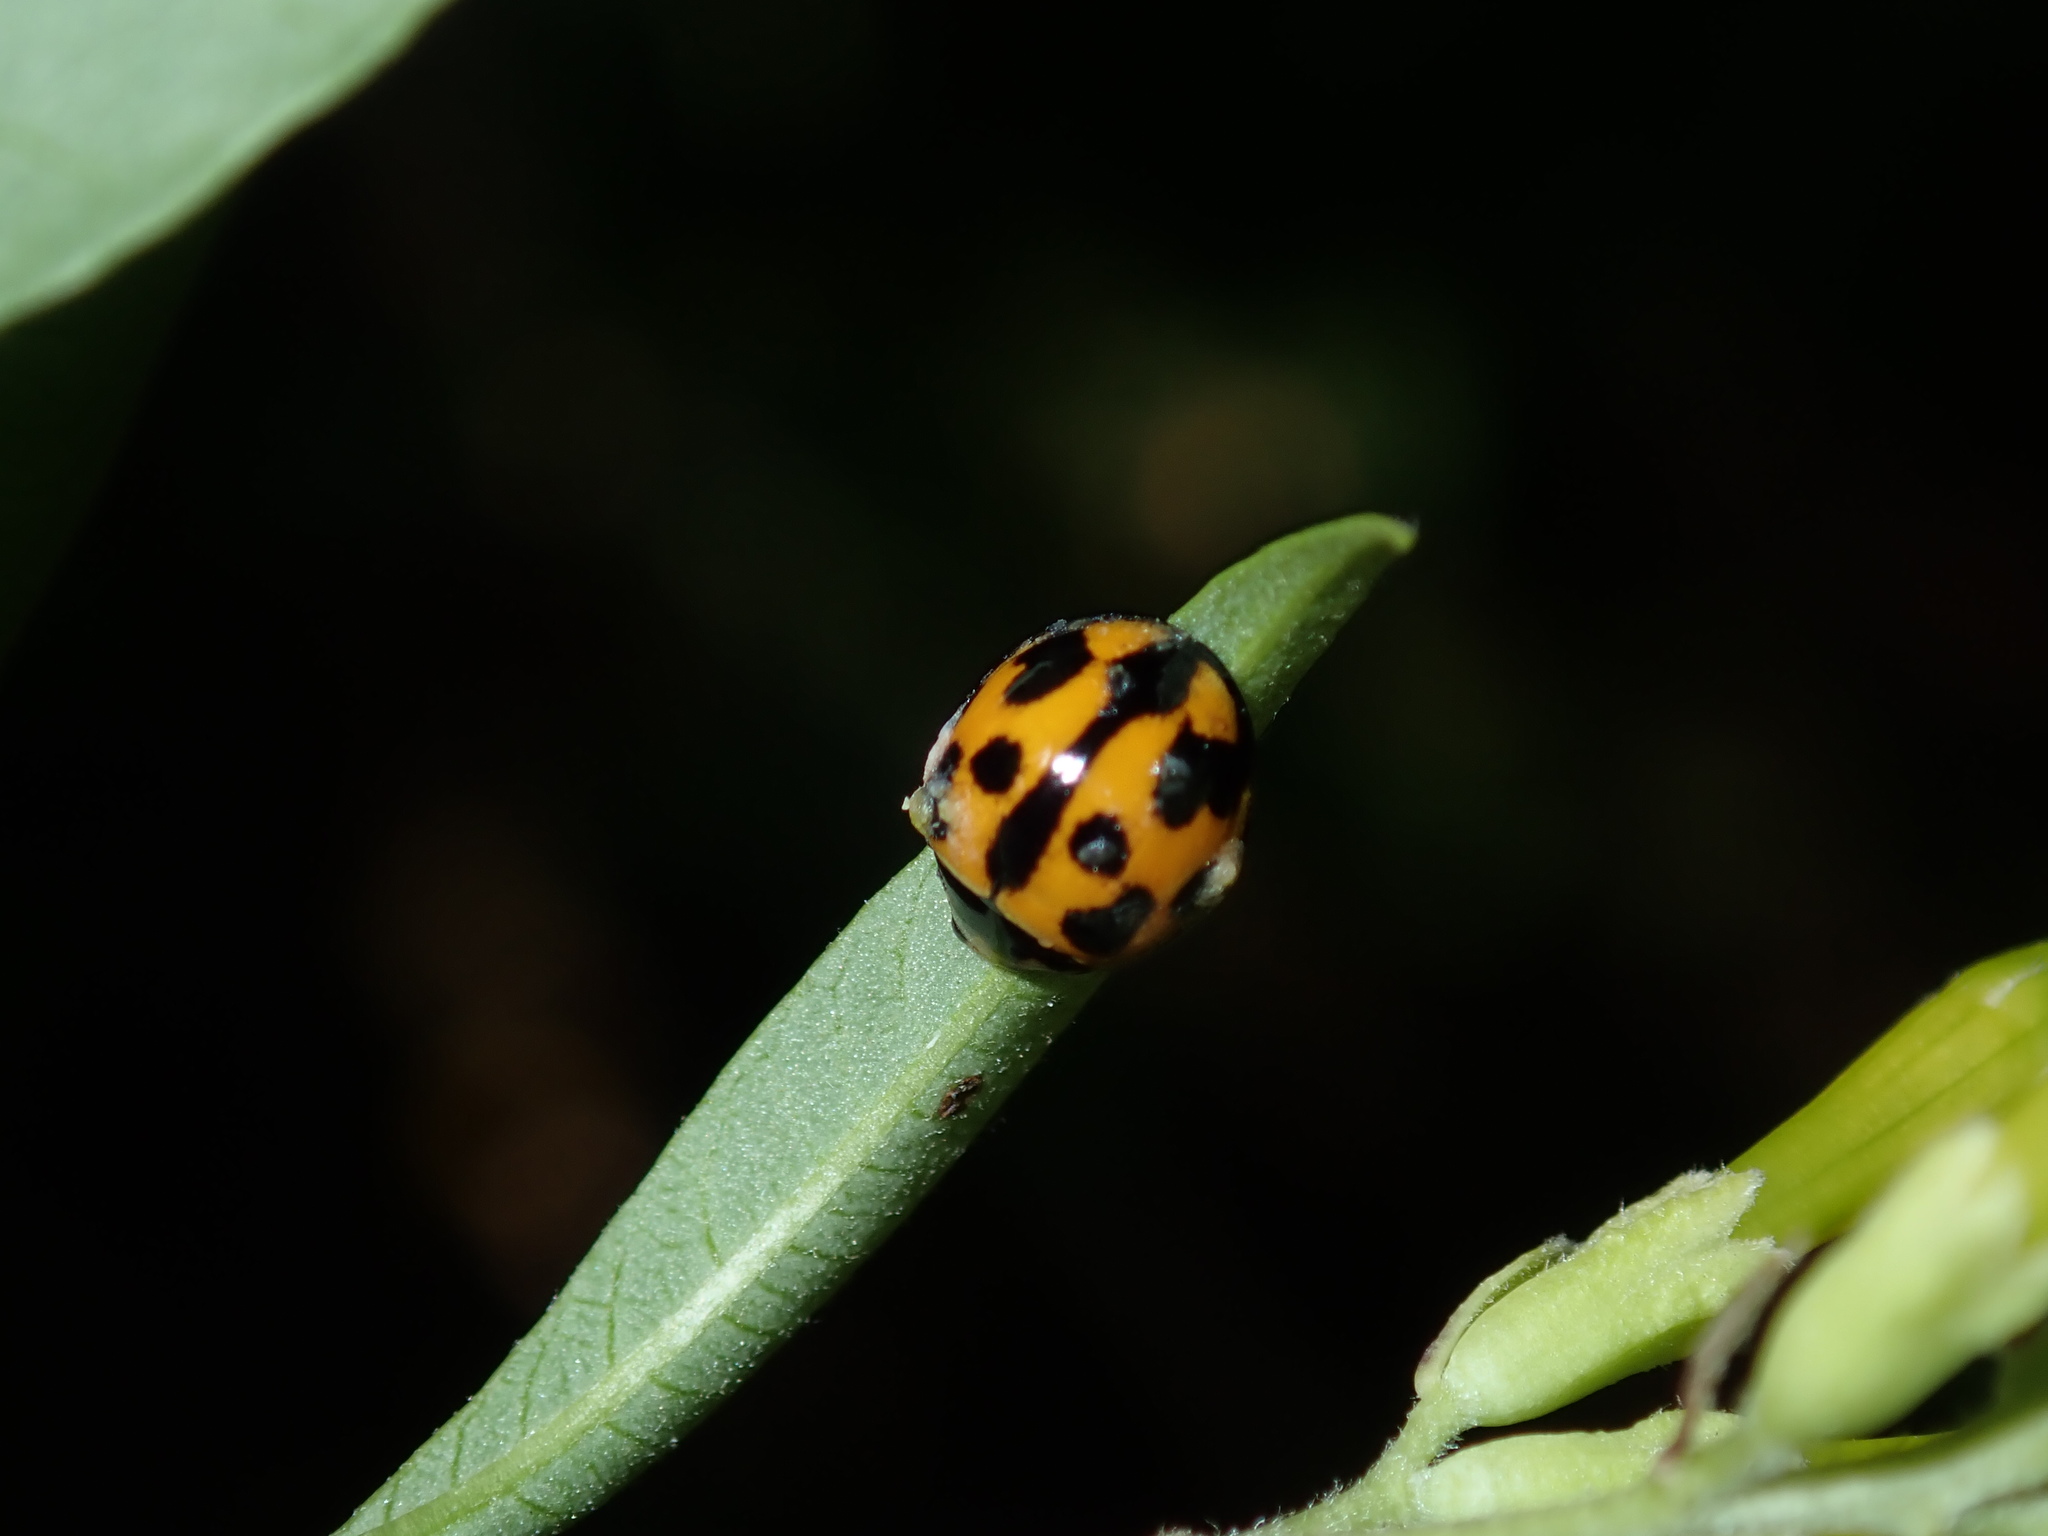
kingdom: Animalia
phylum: Arthropoda
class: Insecta
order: Coleoptera
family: Coccinellidae
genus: Coelophora
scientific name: Coelophora inaequalis
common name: Common australian lady beetle
